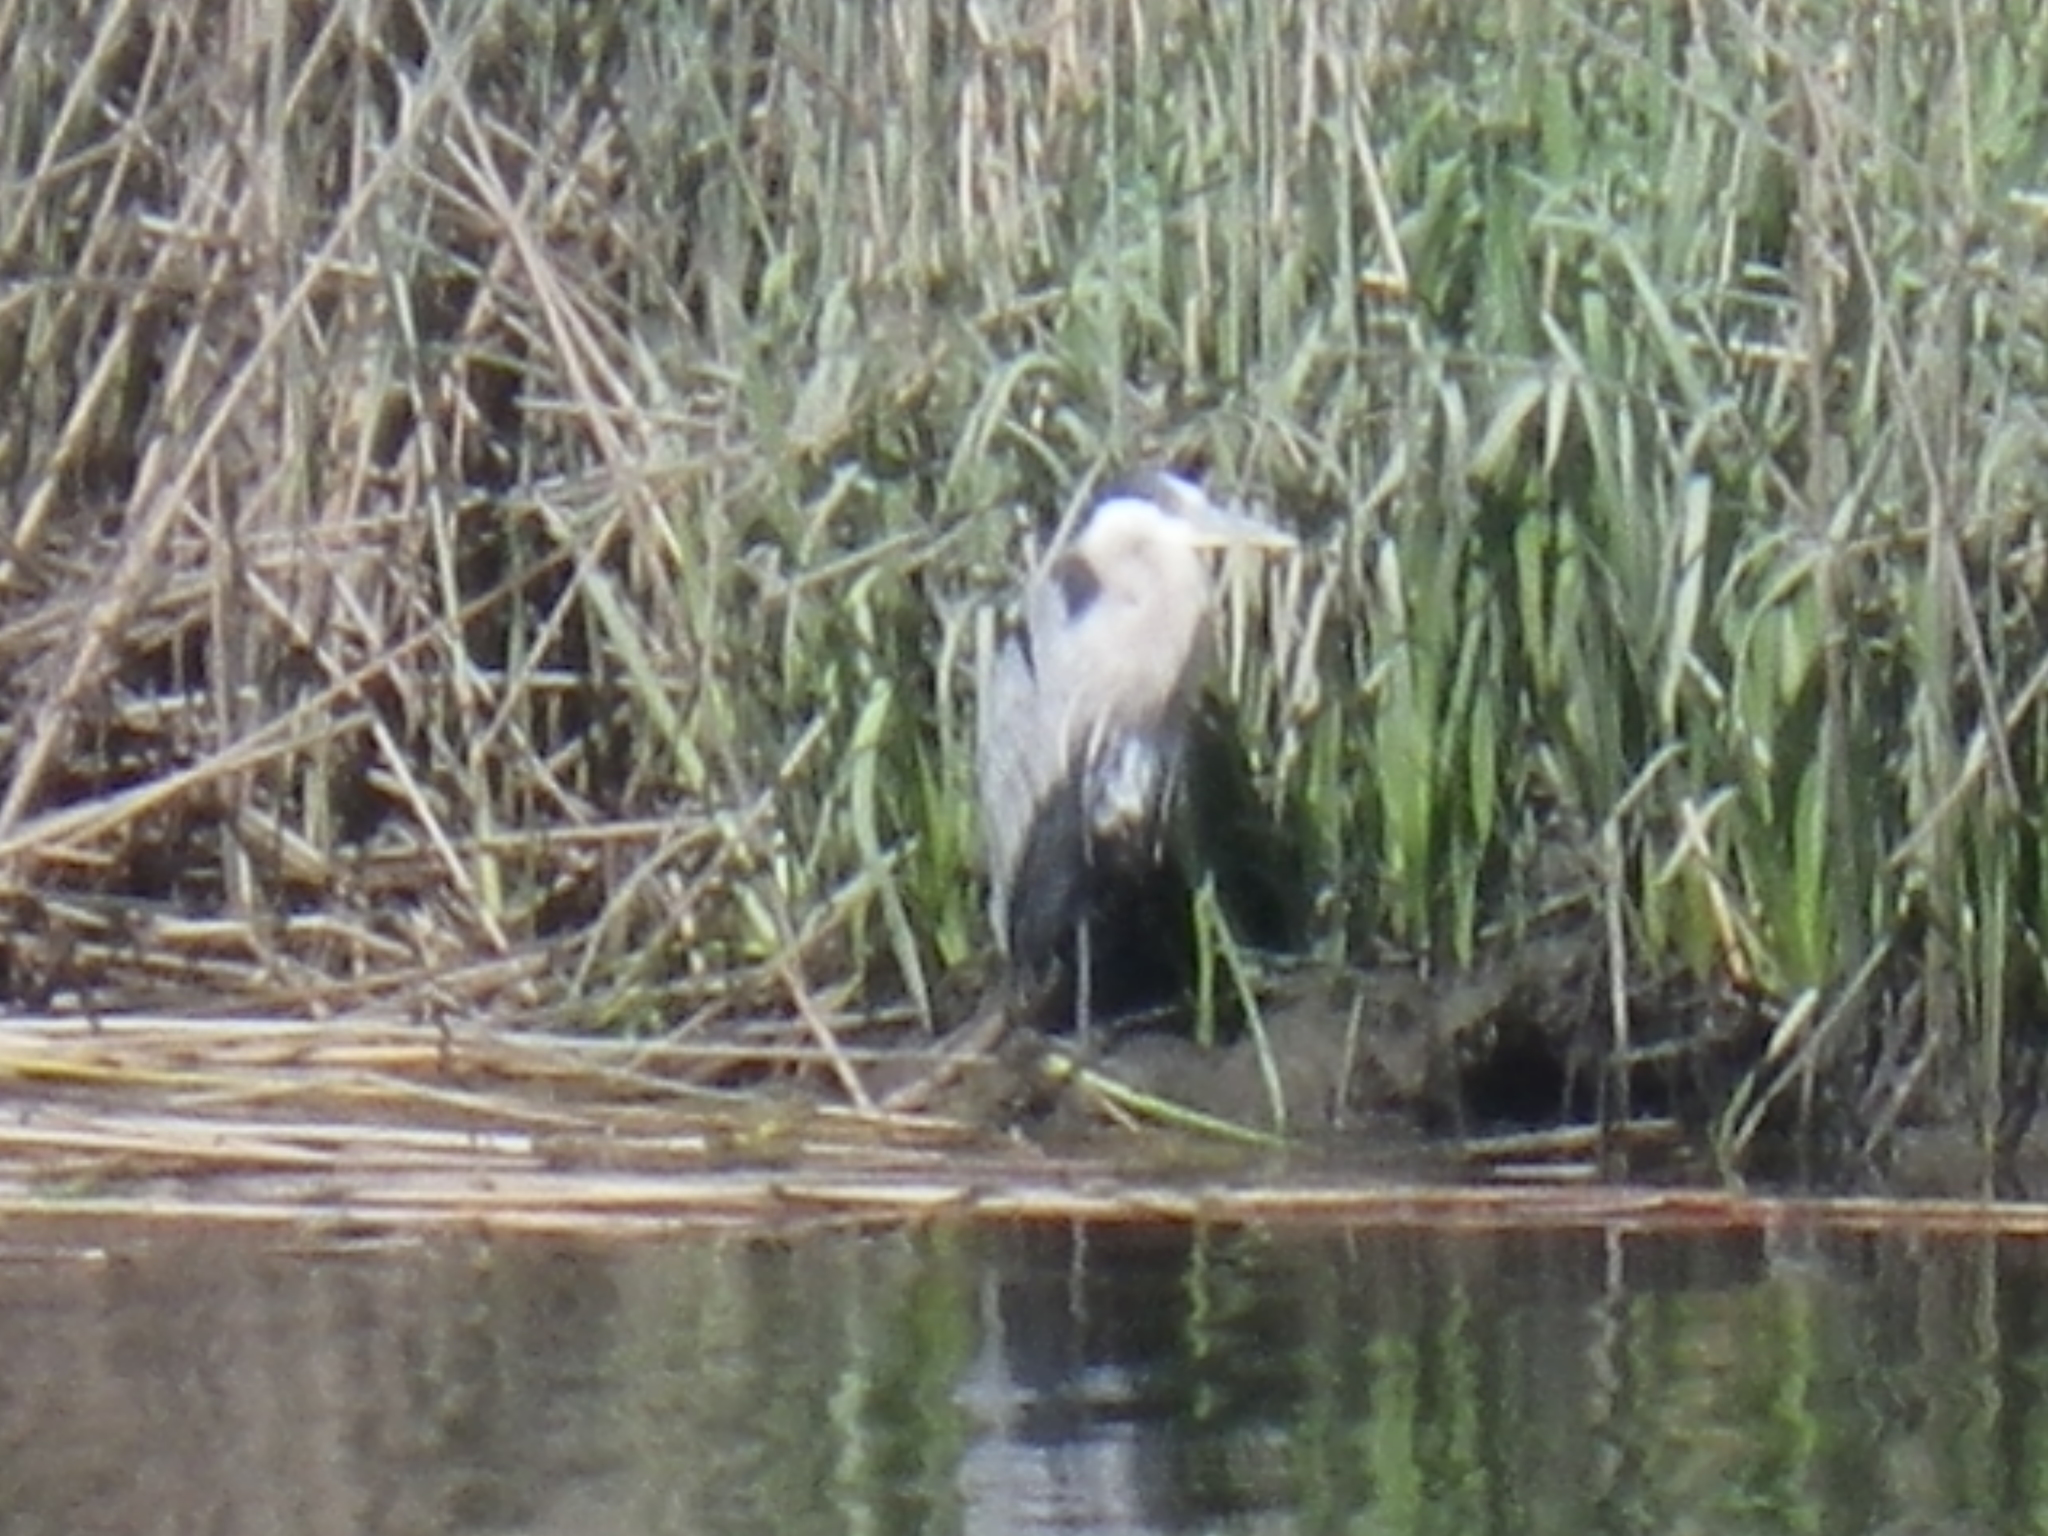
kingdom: Animalia
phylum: Chordata
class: Aves
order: Pelecaniformes
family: Ardeidae
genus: Ardea
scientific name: Ardea herodias
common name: Great blue heron
